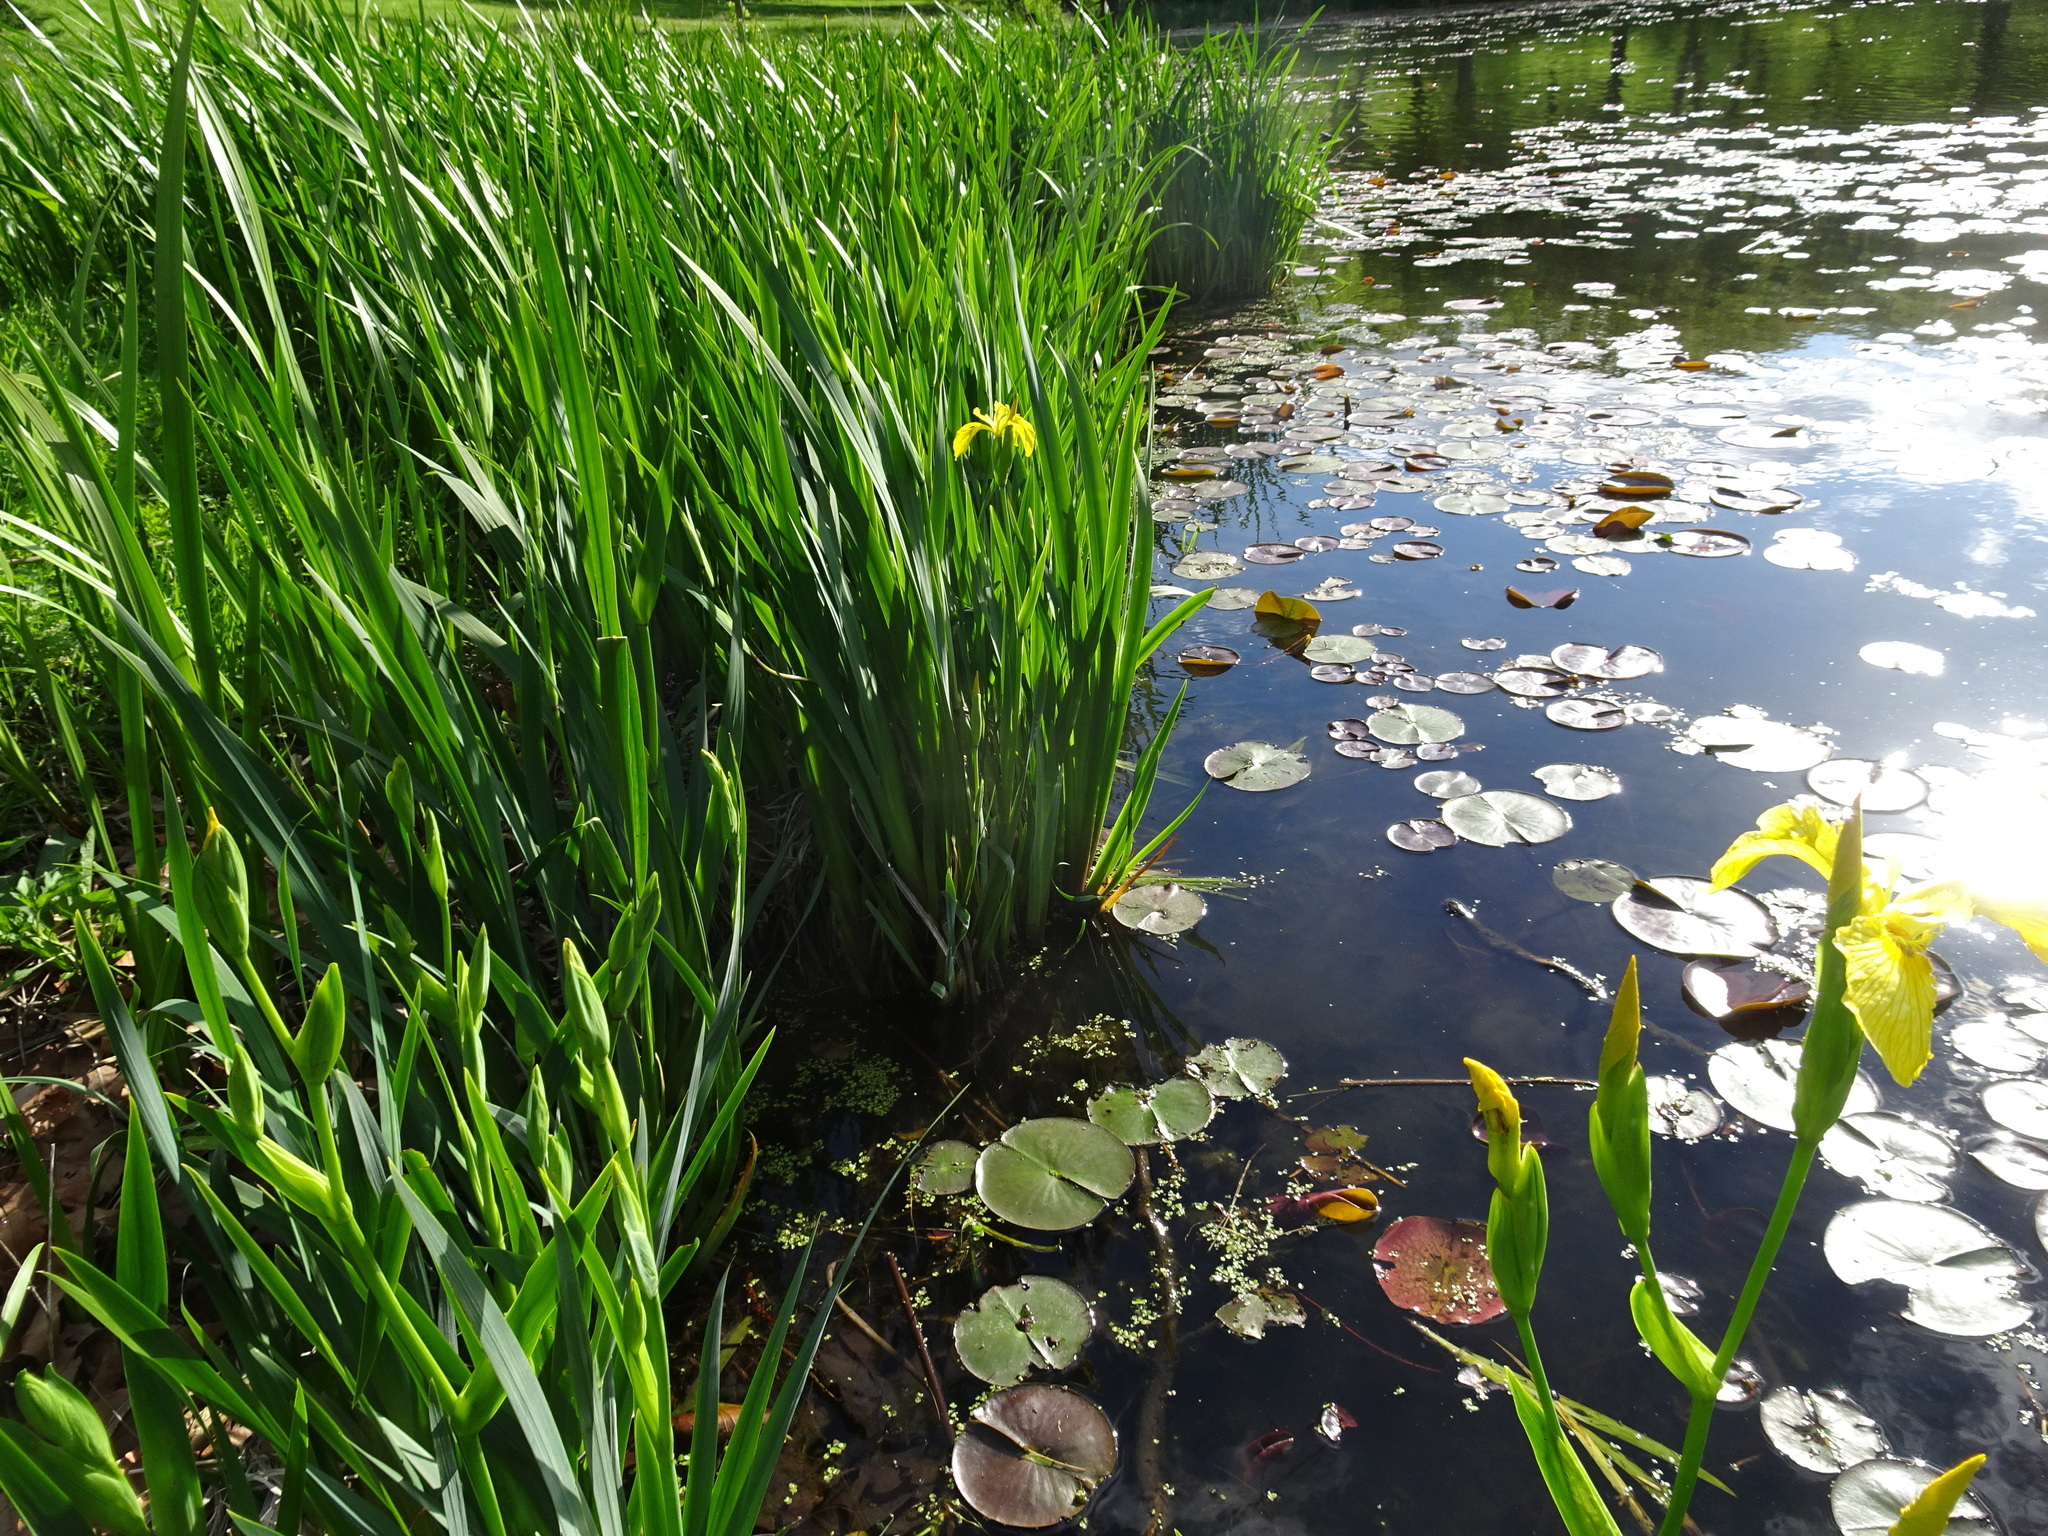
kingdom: Plantae
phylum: Tracheophyta
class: Liliopsida
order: Asparagales
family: Iridaceae
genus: Iris
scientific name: Iris pseudacorus
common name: Yellow flag
